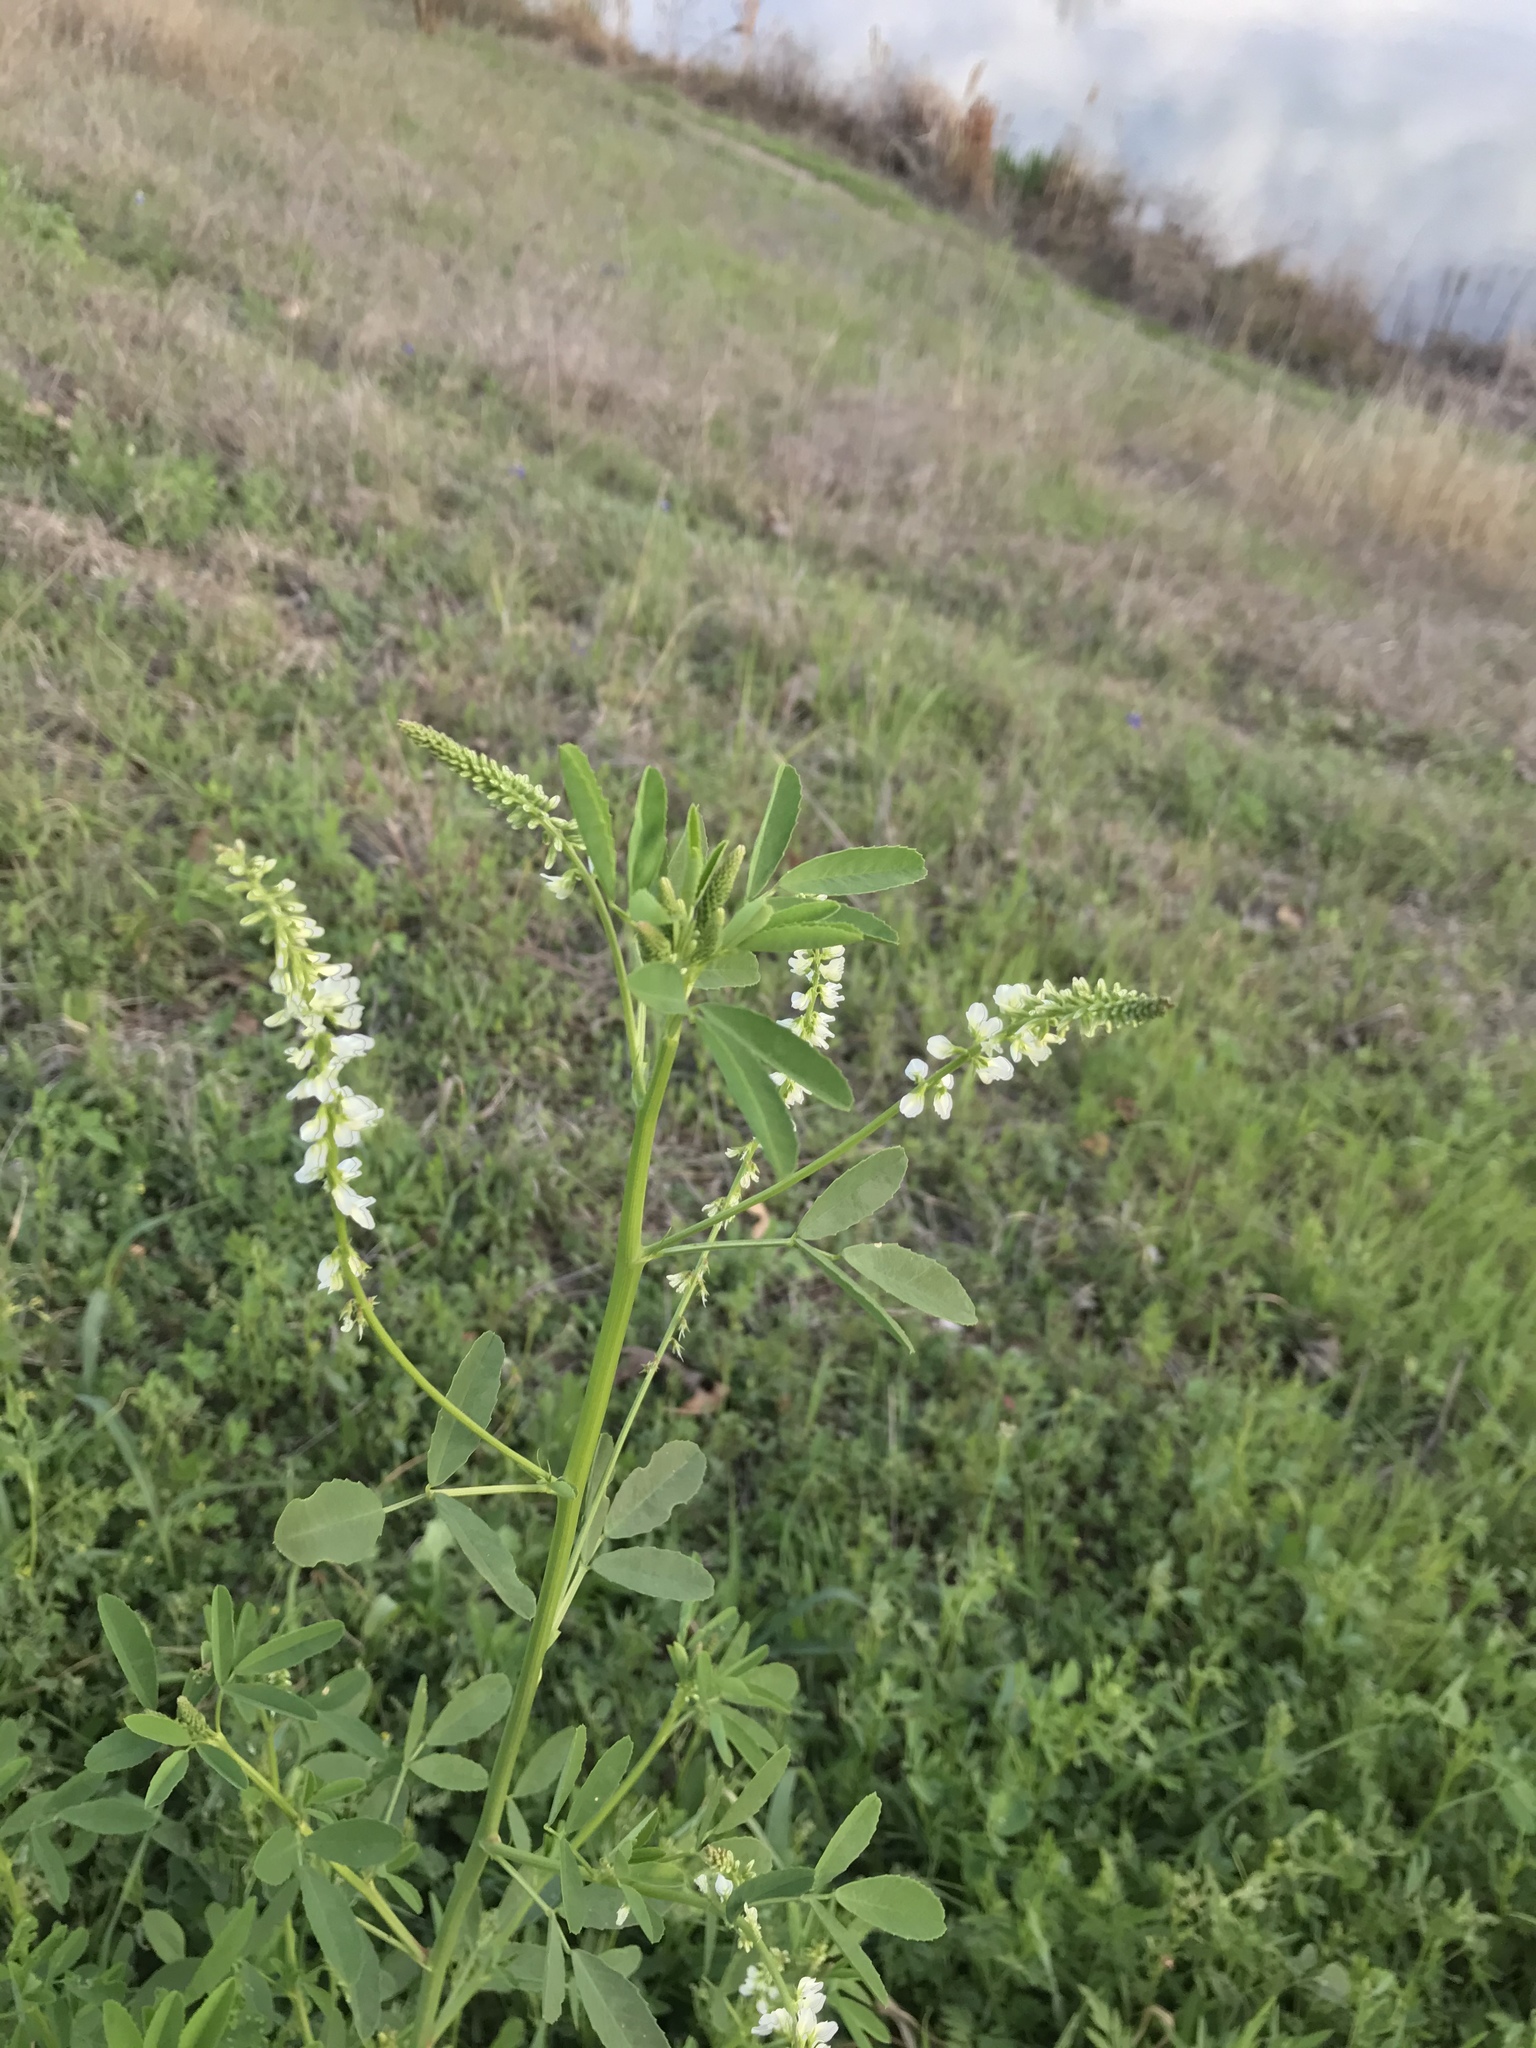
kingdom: Plantae
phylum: Tracheophyta
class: Magnoliopsida
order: Fabales
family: Fabaceae
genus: Melilotus
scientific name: Melilotus albus
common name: White melilot
